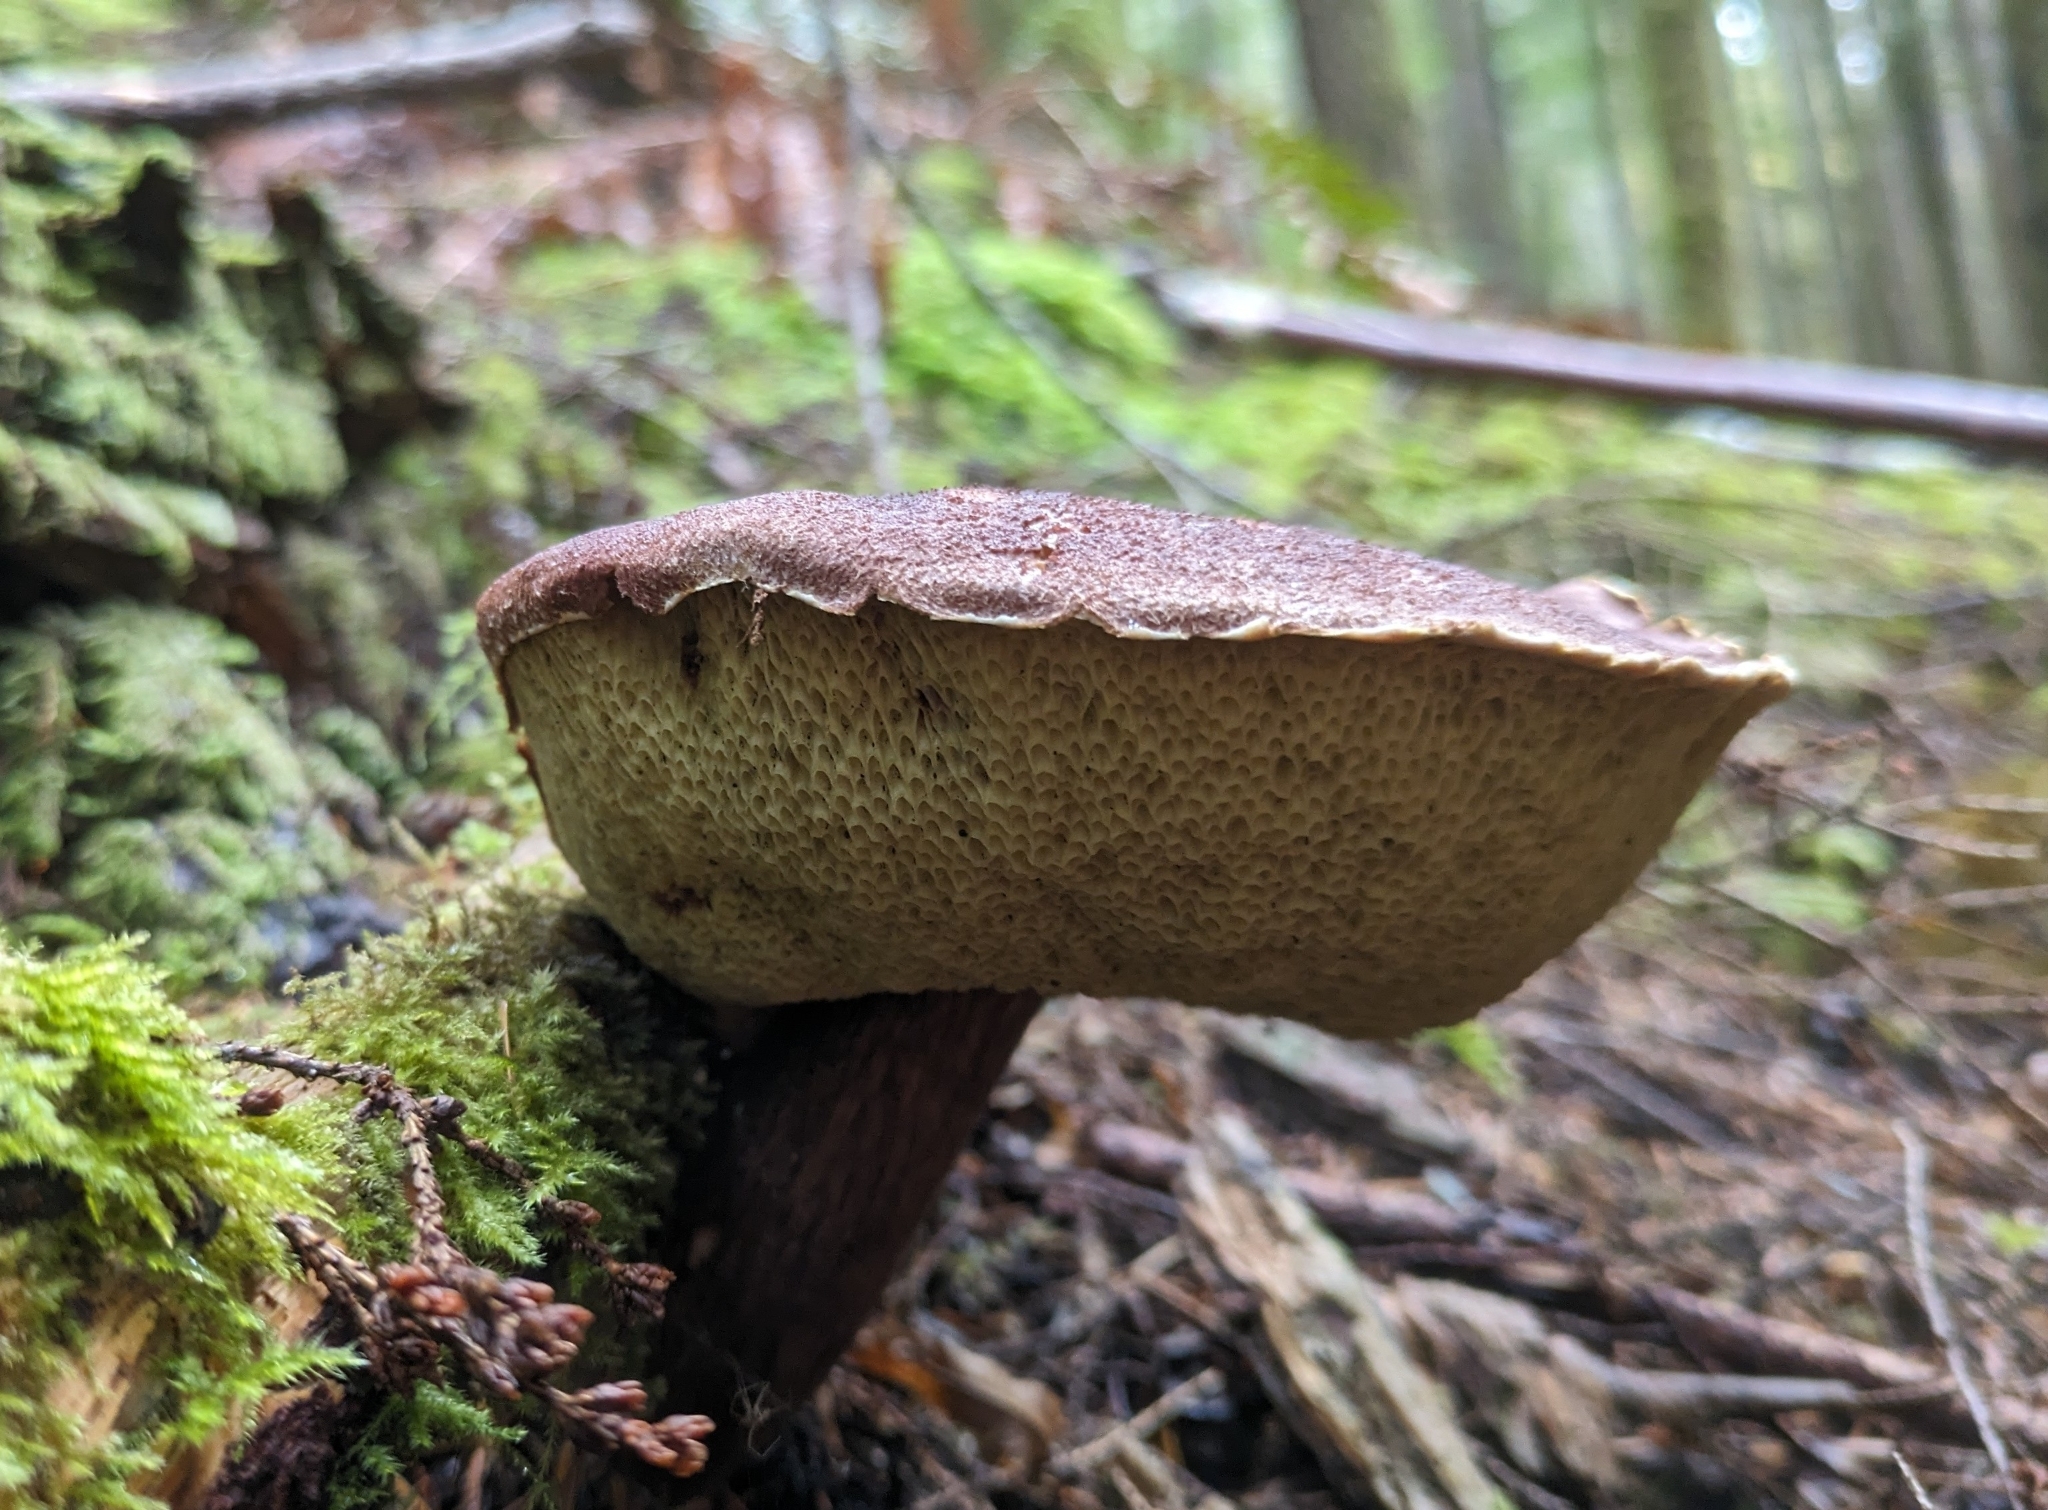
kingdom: Fungi
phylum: Basidiomycota
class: Agaricomycetes
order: Boletales
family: Boletaceae
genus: Aureoboletus
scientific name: Aureoboletus mirabilis
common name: Admirable bolete
